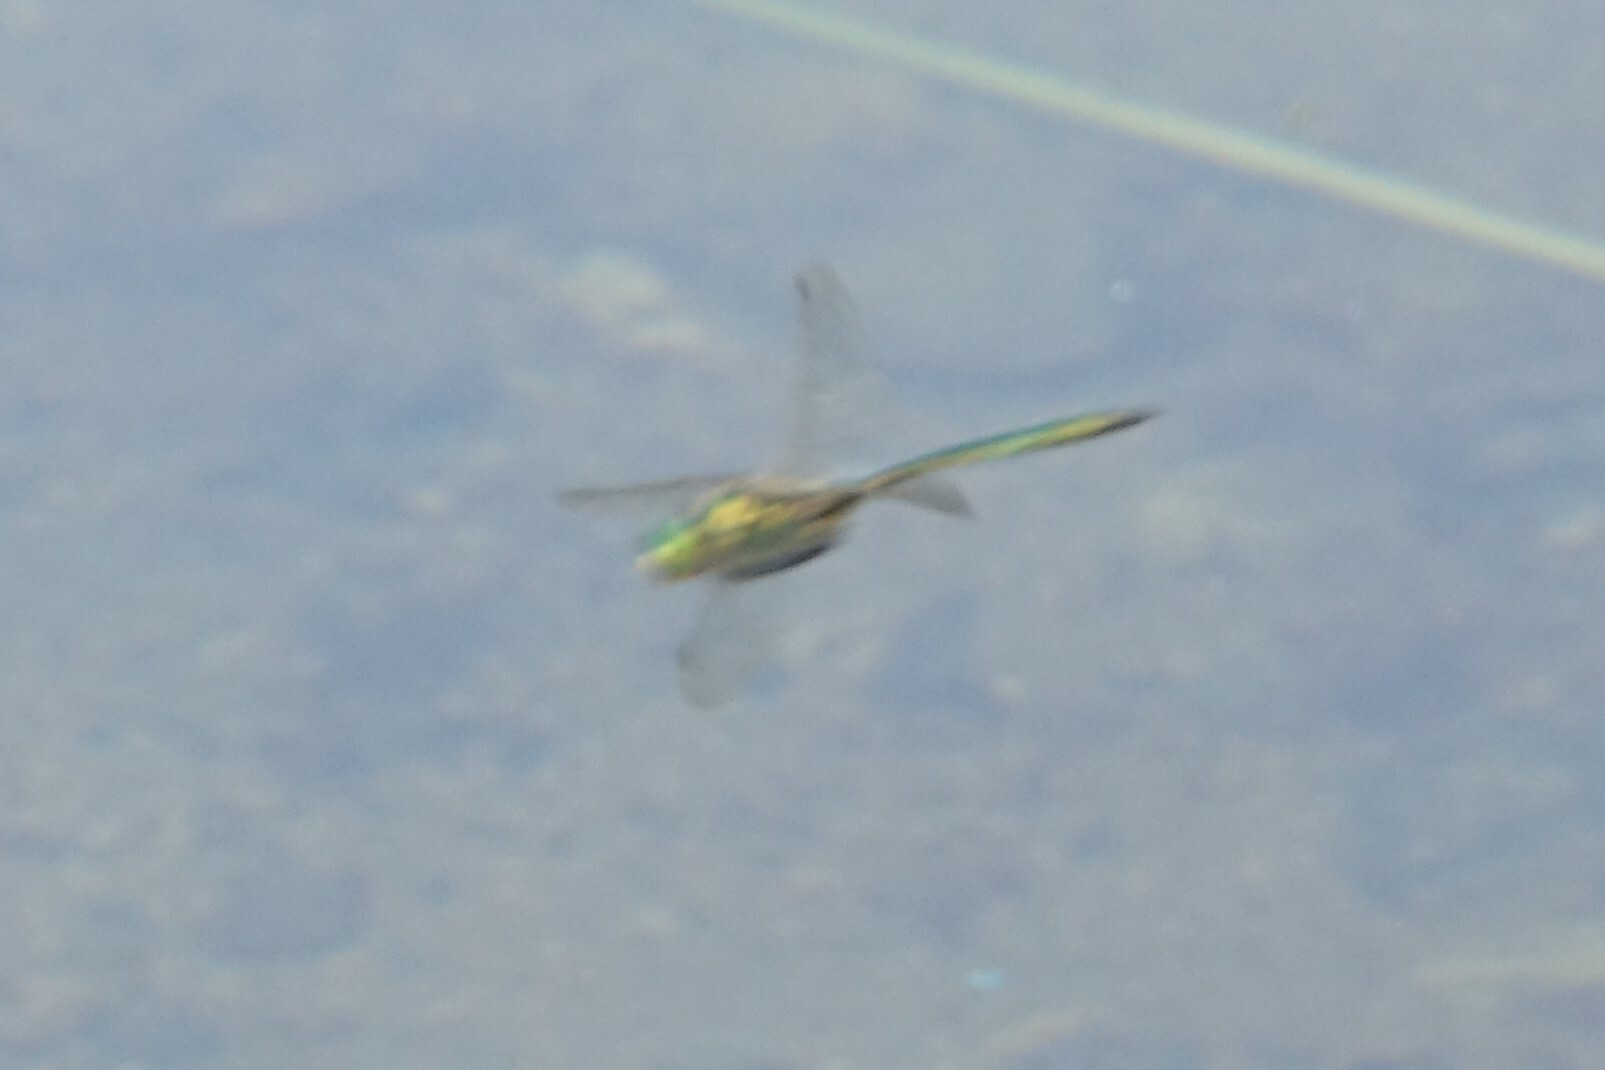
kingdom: Animalia
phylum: Arthropoda
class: Insecta
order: Odonata
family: Corduliidae
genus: Somatochlora
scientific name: Somatochlora metallica
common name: Brilliant emerald
